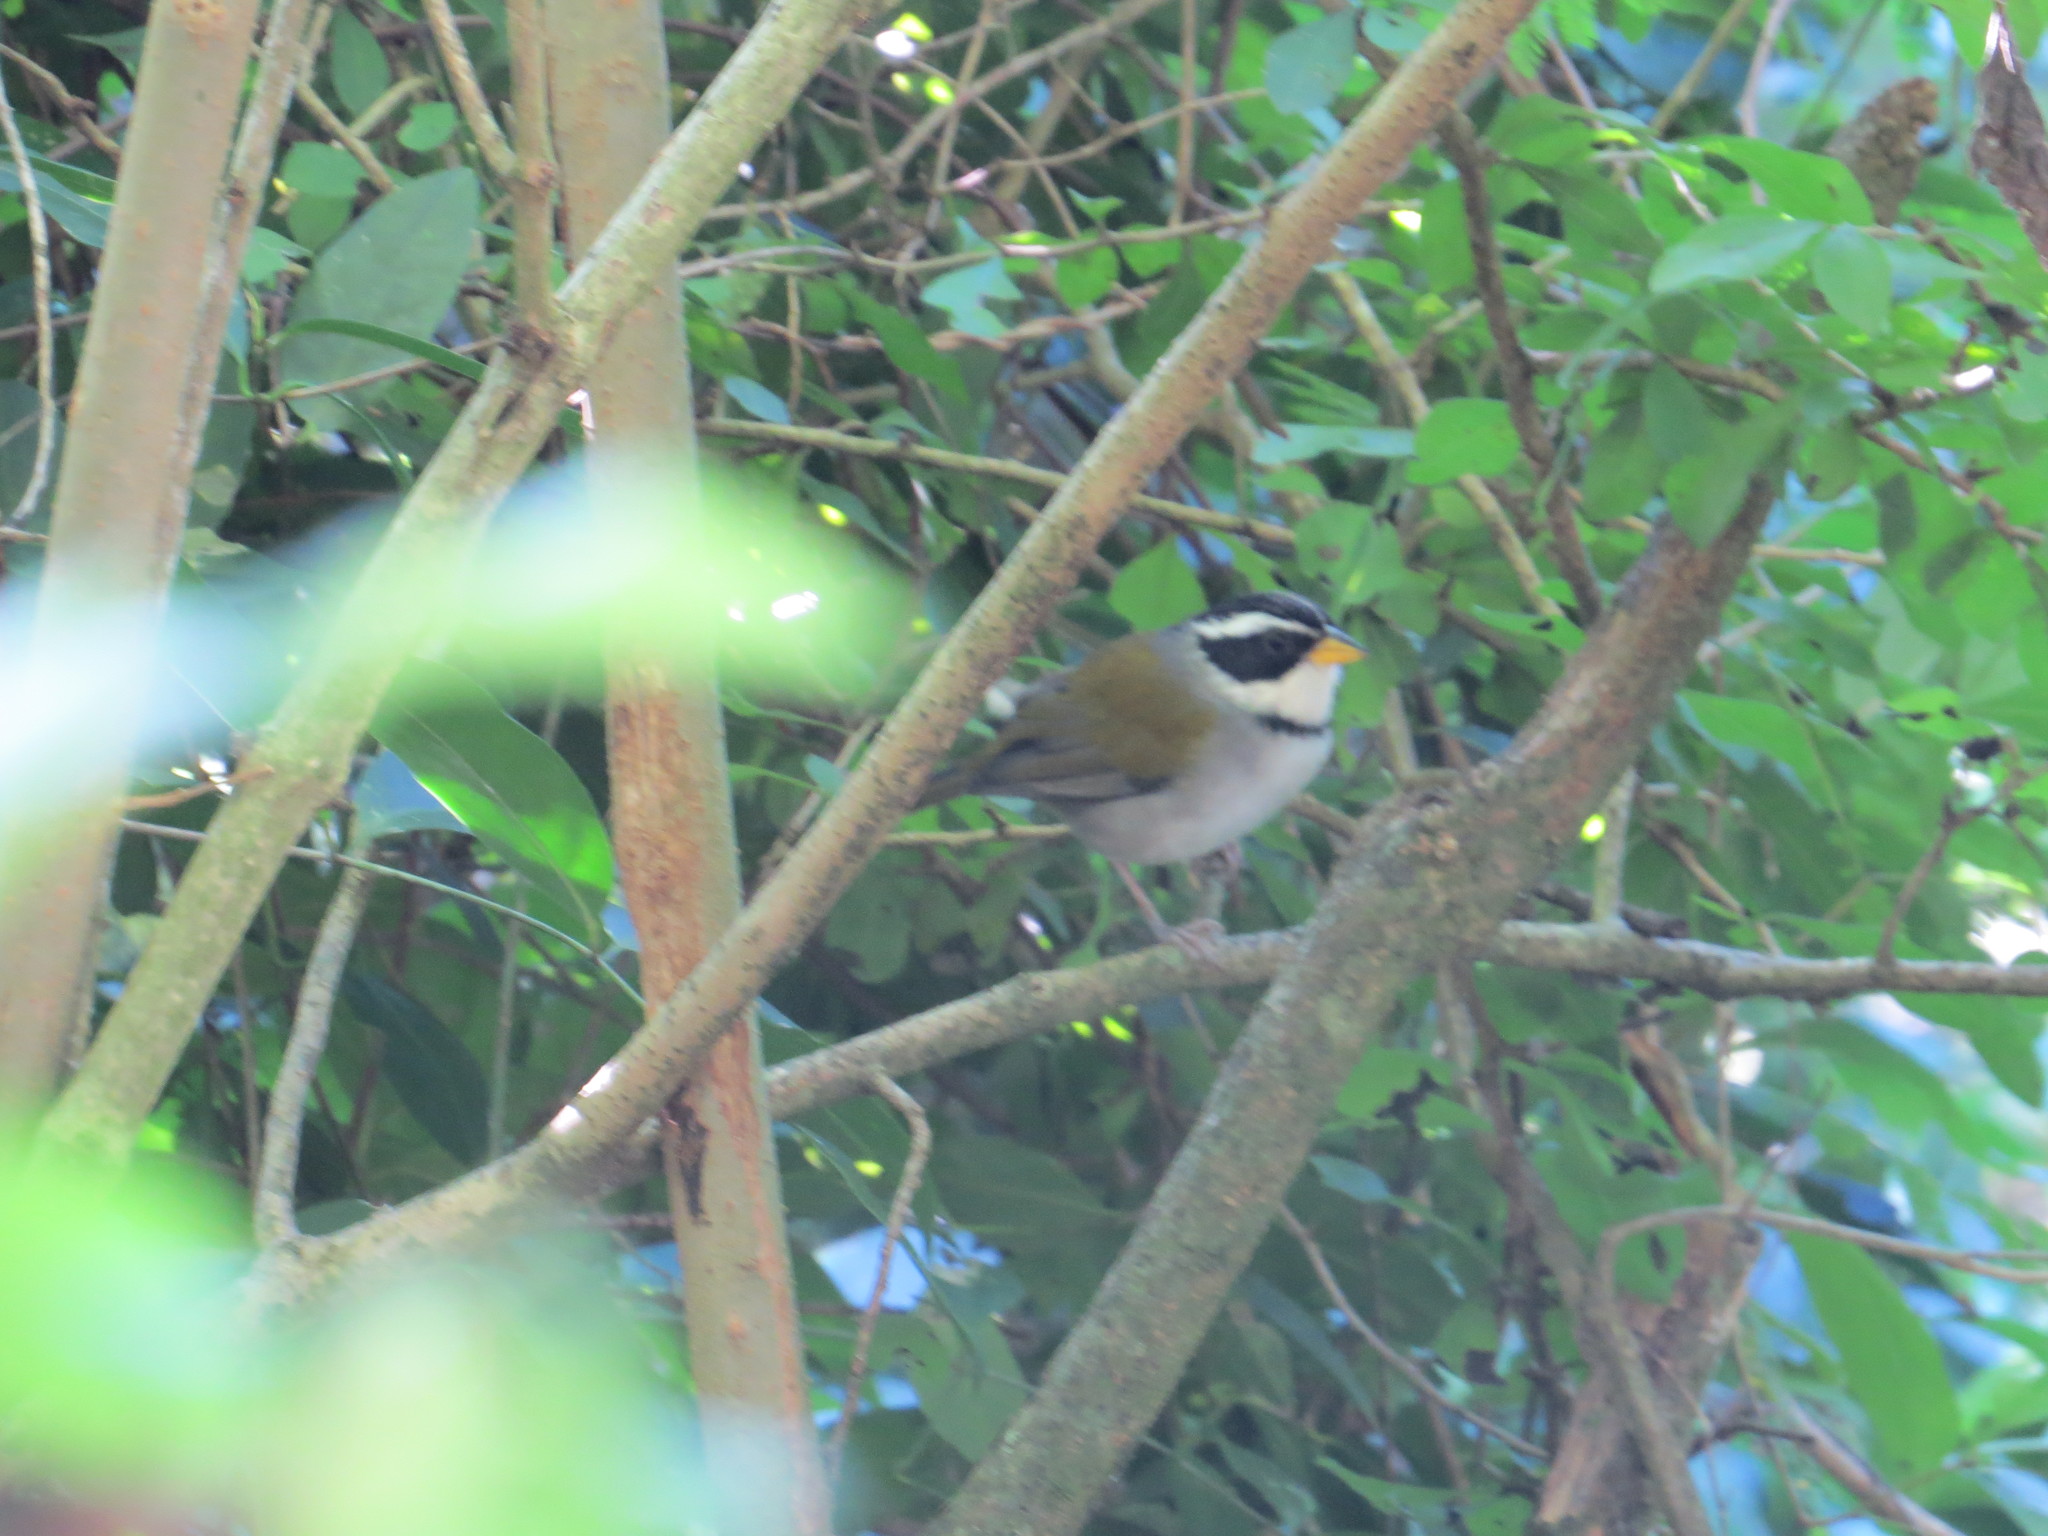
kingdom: Animalia
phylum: Chordata
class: Aves
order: Passeriformes
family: Passerellidae
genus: Arremon
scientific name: Arremon dorbignii
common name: Moss-backed sparrow
